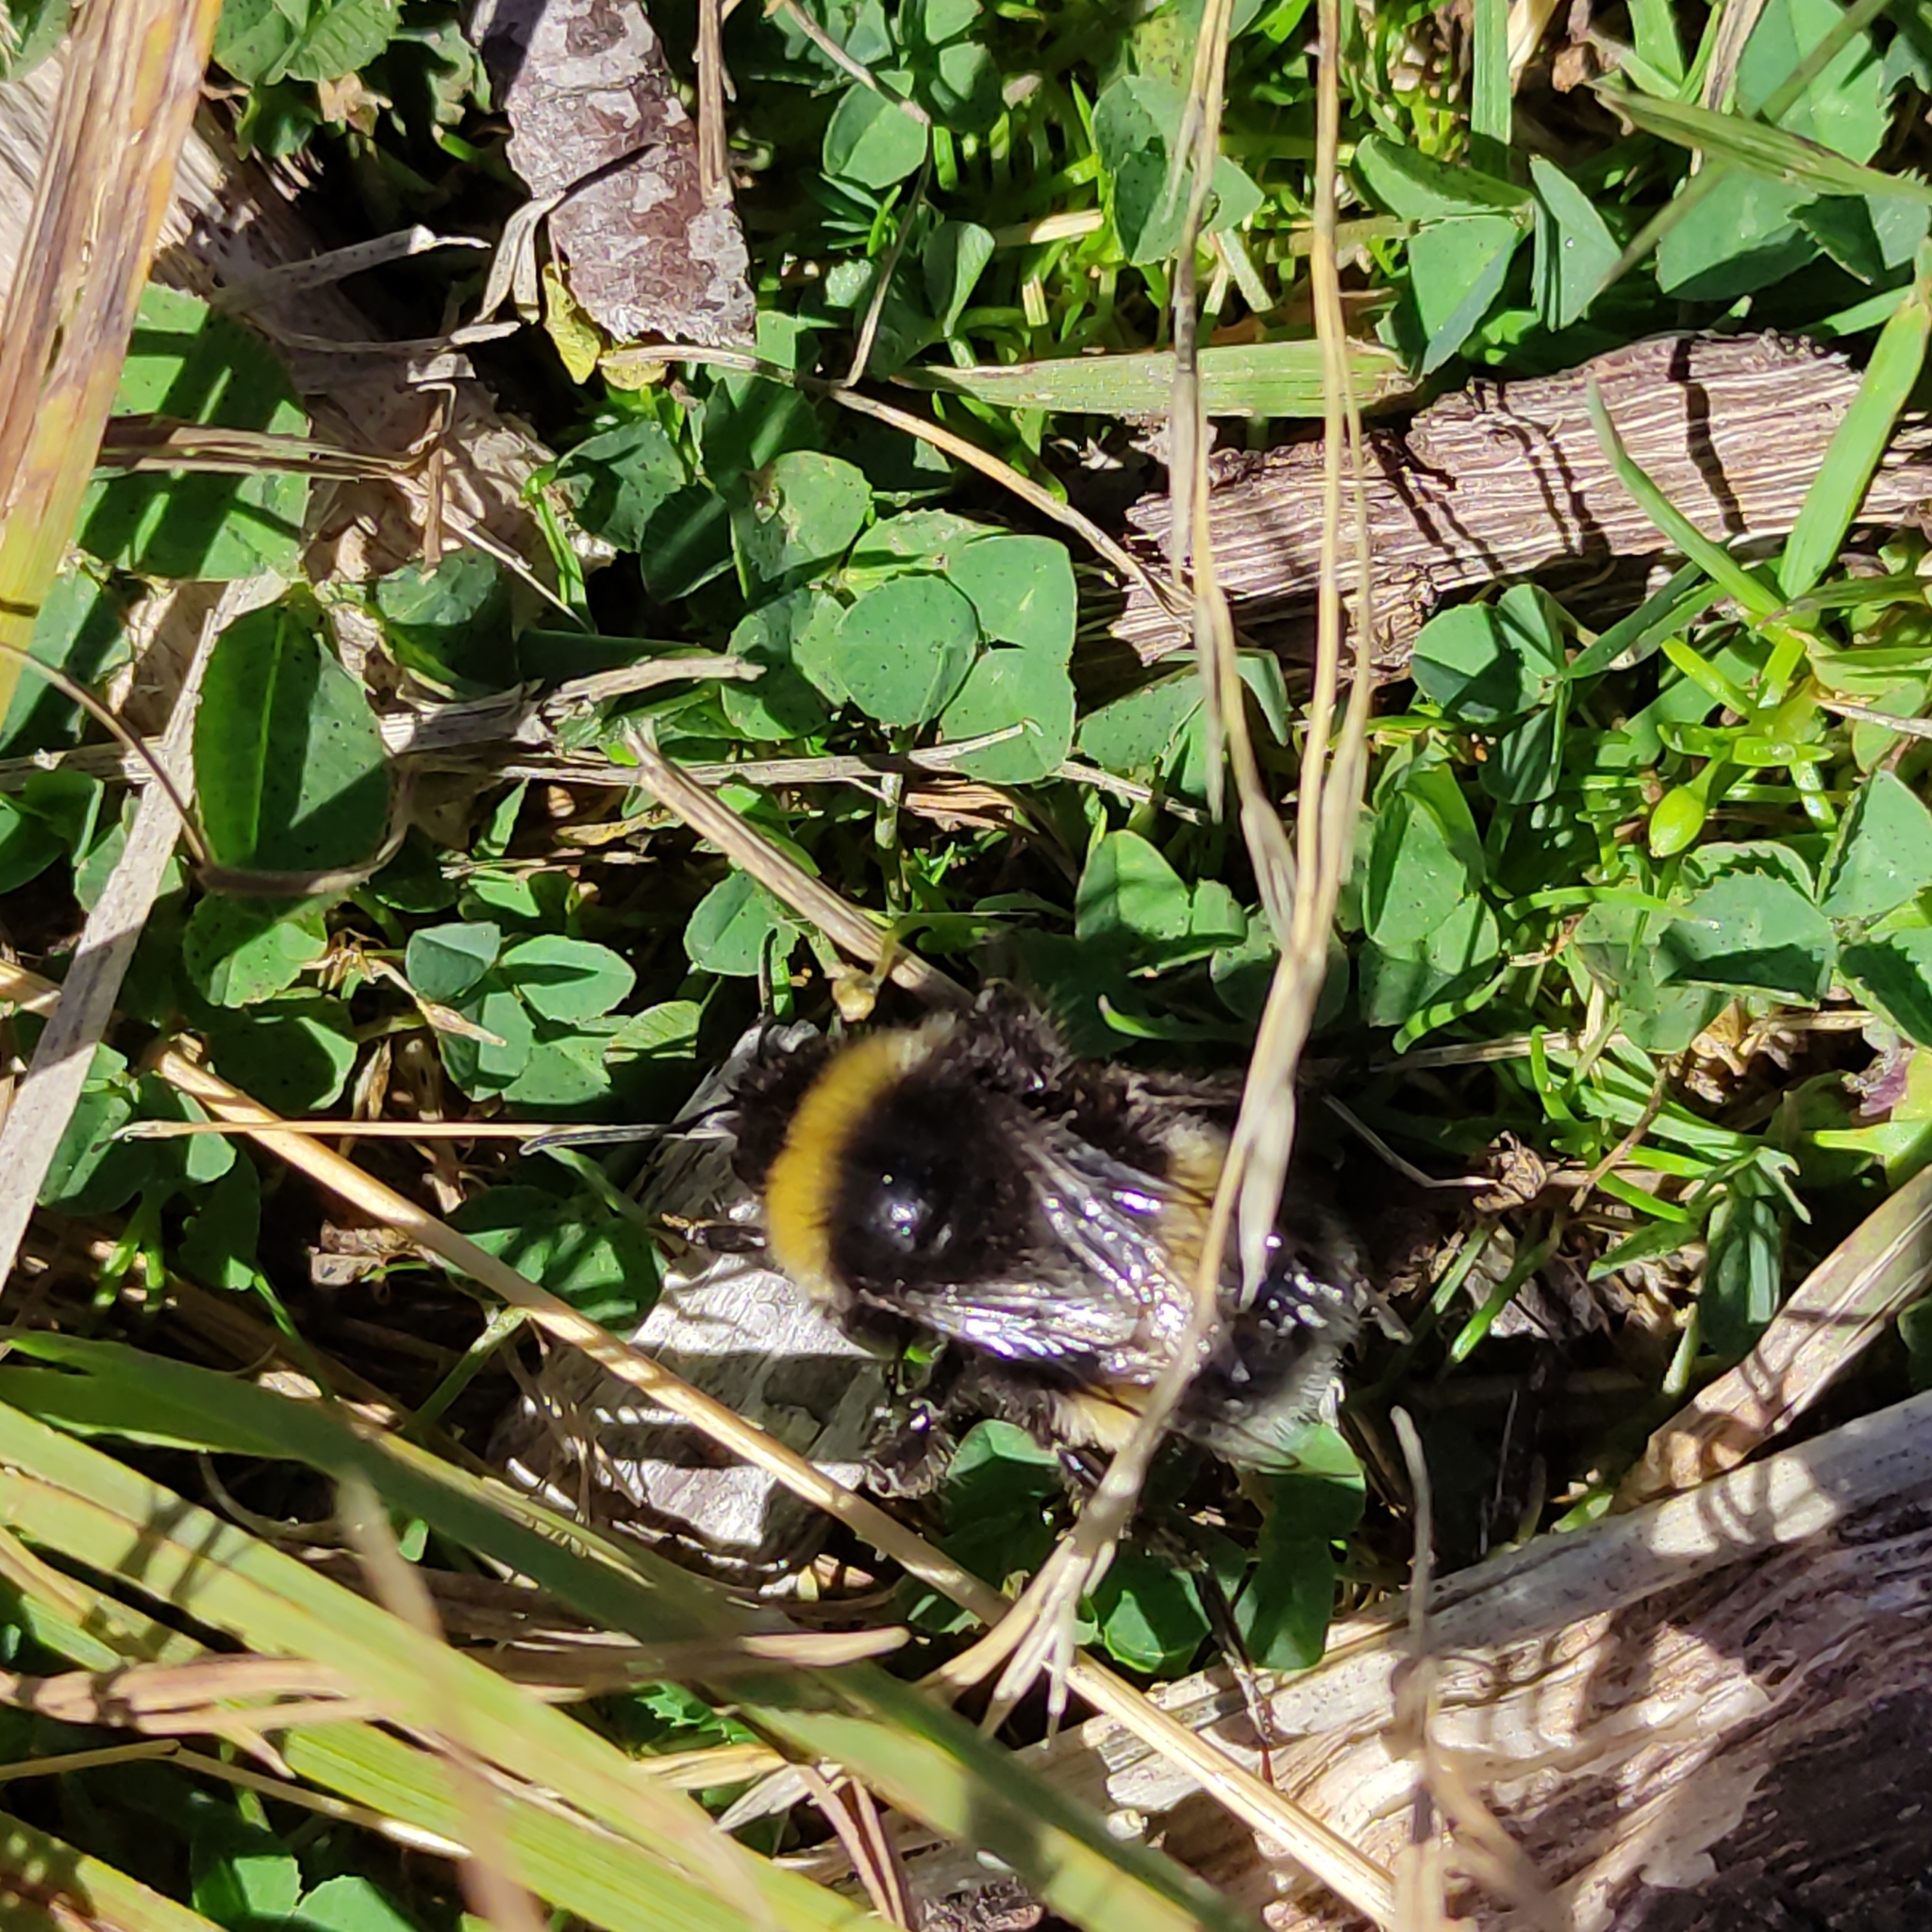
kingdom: Animalia
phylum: Arthropoda
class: Insecta
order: Hymenoptera
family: Apidae
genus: Bombus
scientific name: Bombus terrestris
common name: Buff-tailed bumblebee
